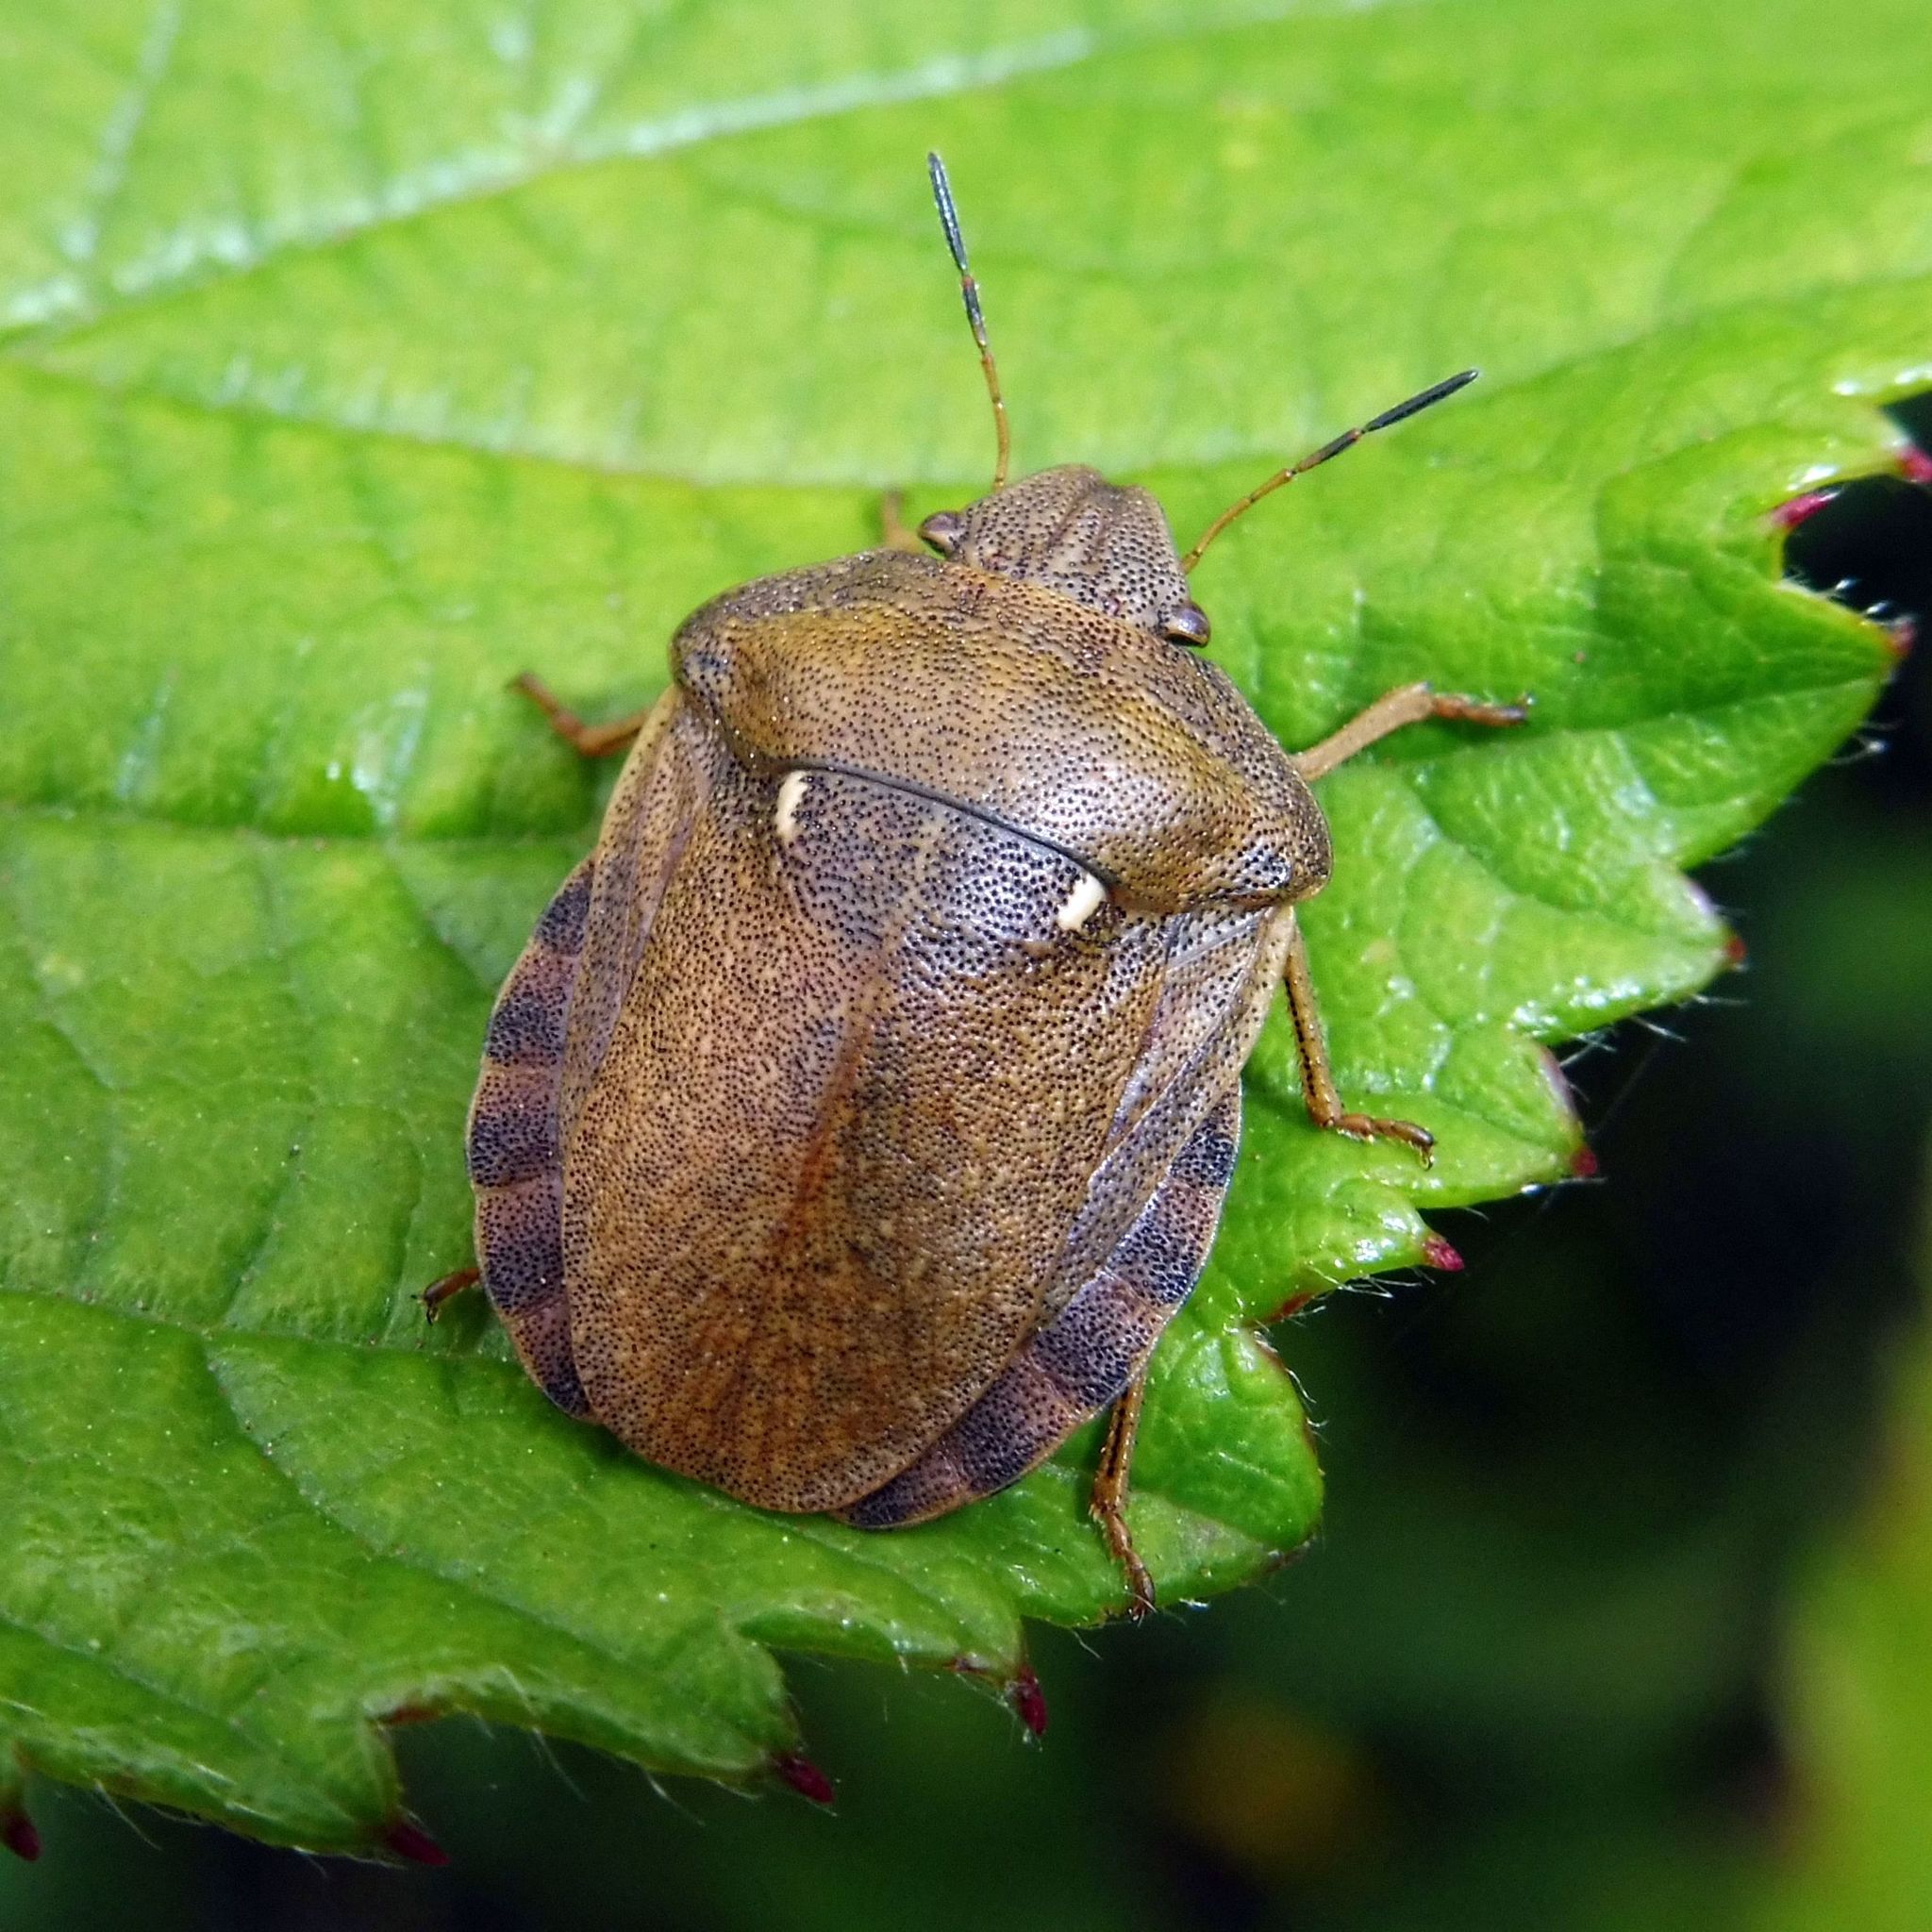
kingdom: Animalia
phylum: Arthropoda
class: Insecta
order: Hemiptera
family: Scutelleridae
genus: Eurygaster
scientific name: Eurygaster testudinaria
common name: Tortoise bug
